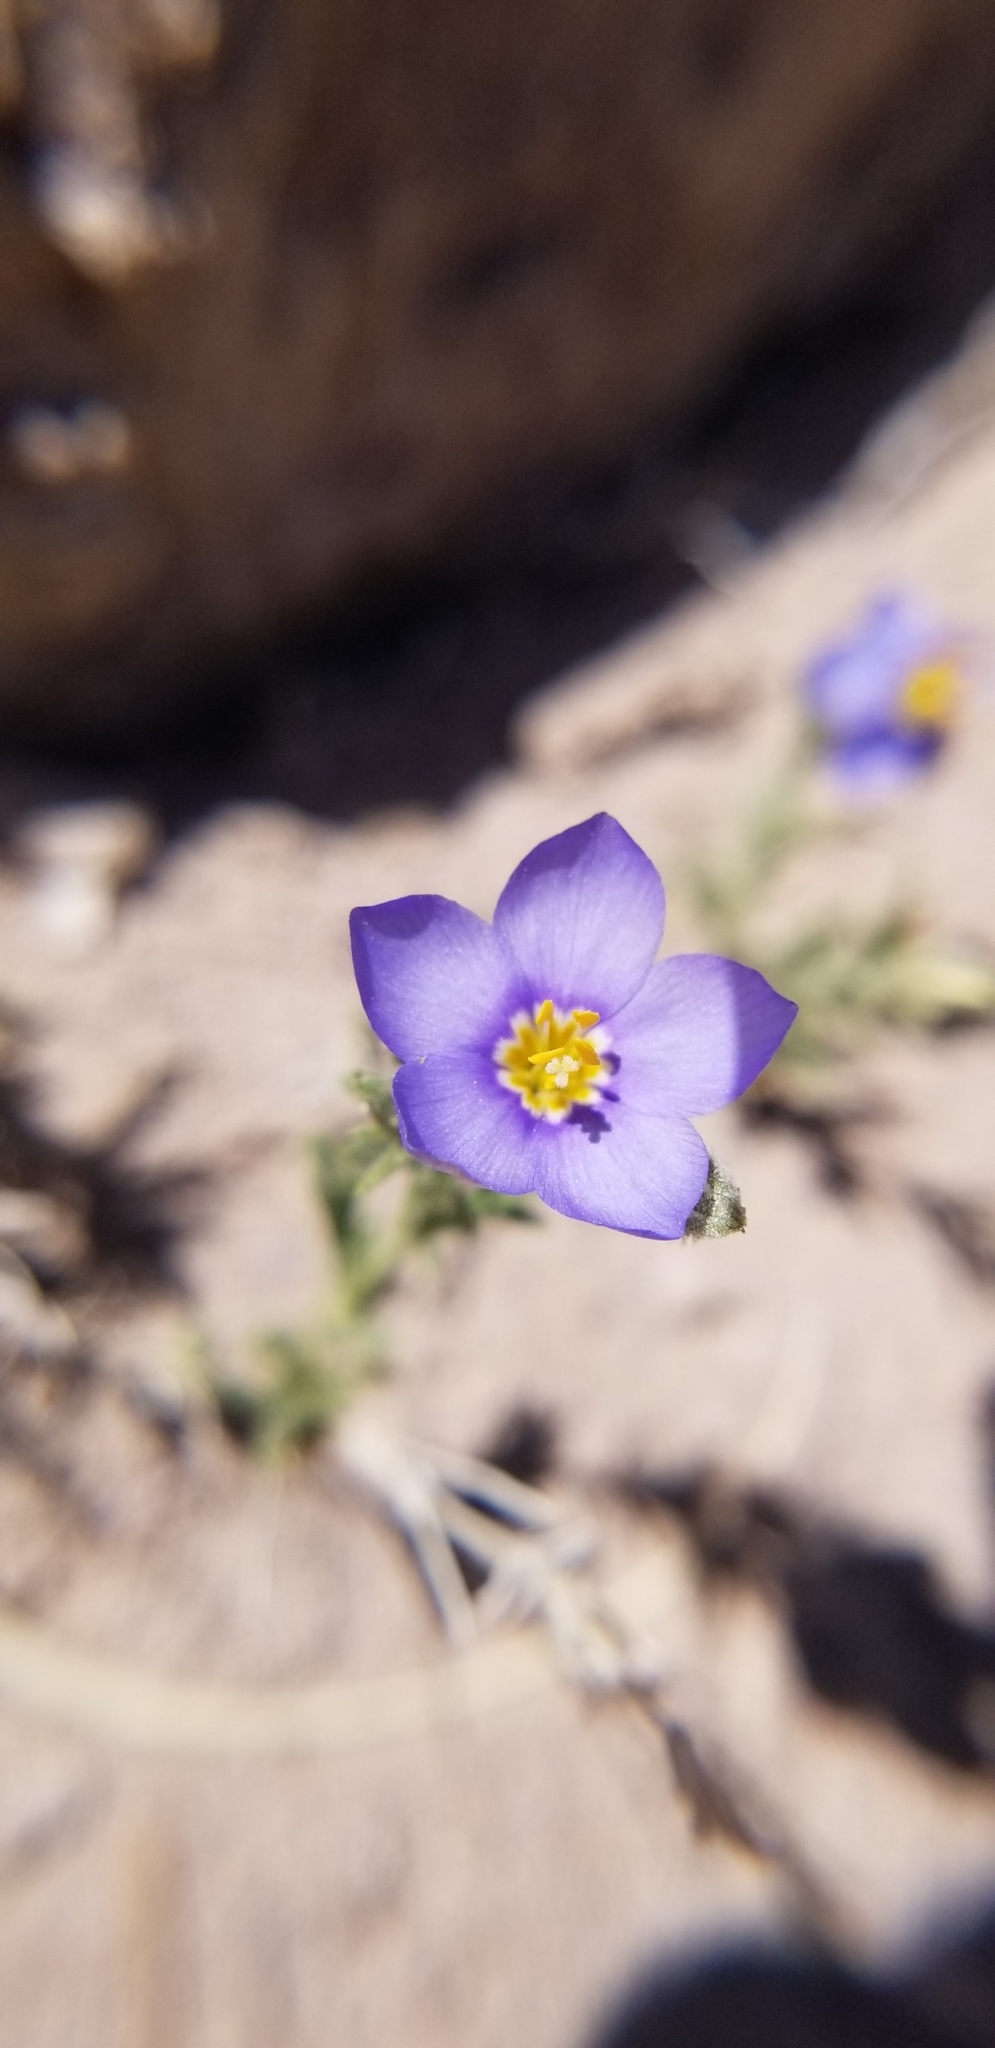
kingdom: Plantae
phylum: Tracheophyta
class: Magnoliopsida
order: Ericales
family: Polemoniaceae
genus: Giliastrum
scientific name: Giliastrum acerosum
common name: Bluebowls
